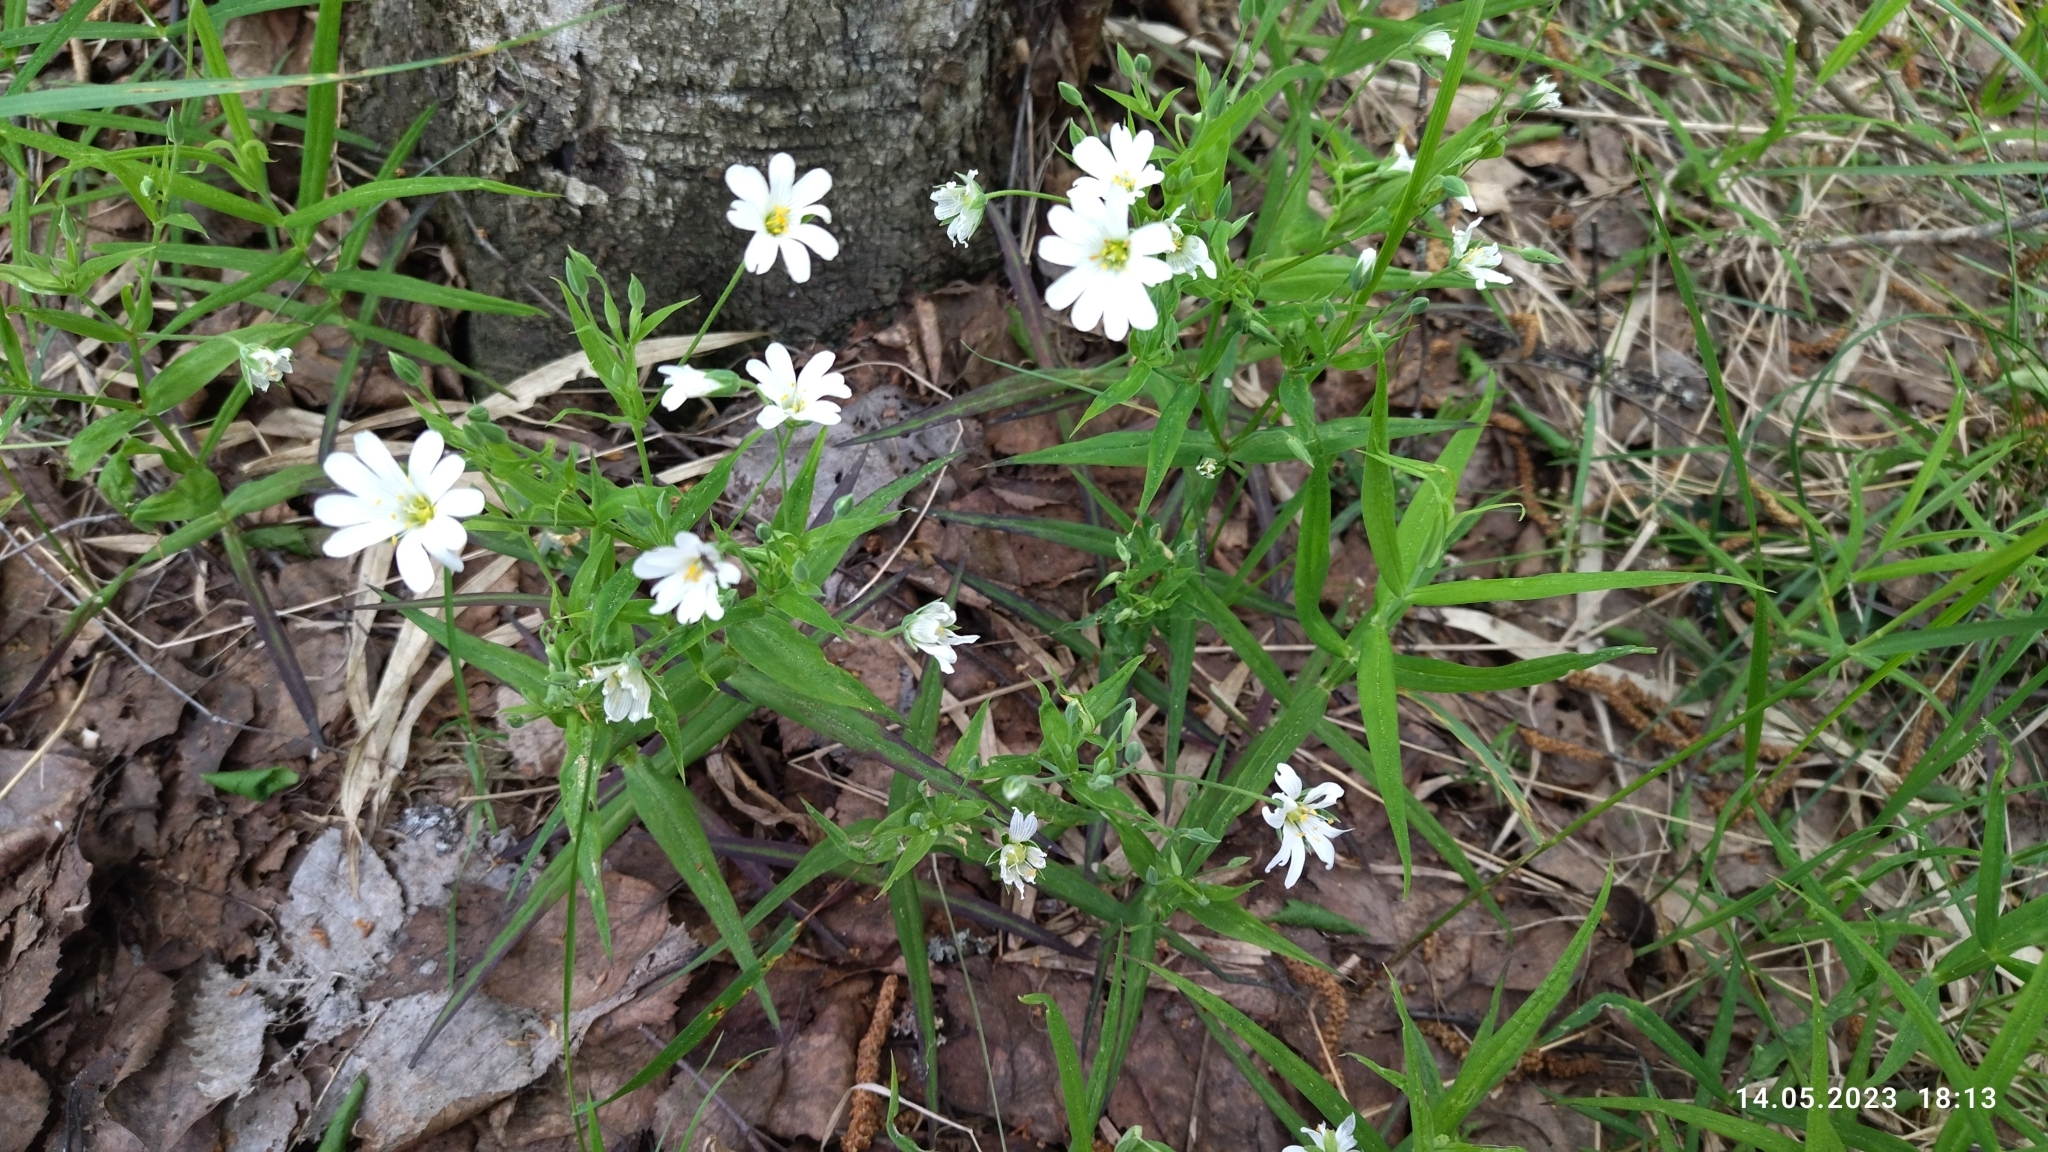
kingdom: Plantae
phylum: Tracheophyta
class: Magnoliopsida
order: Caryophyllales
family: Caryophyllaceae
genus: Rabelera
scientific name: Rabelera holostea
